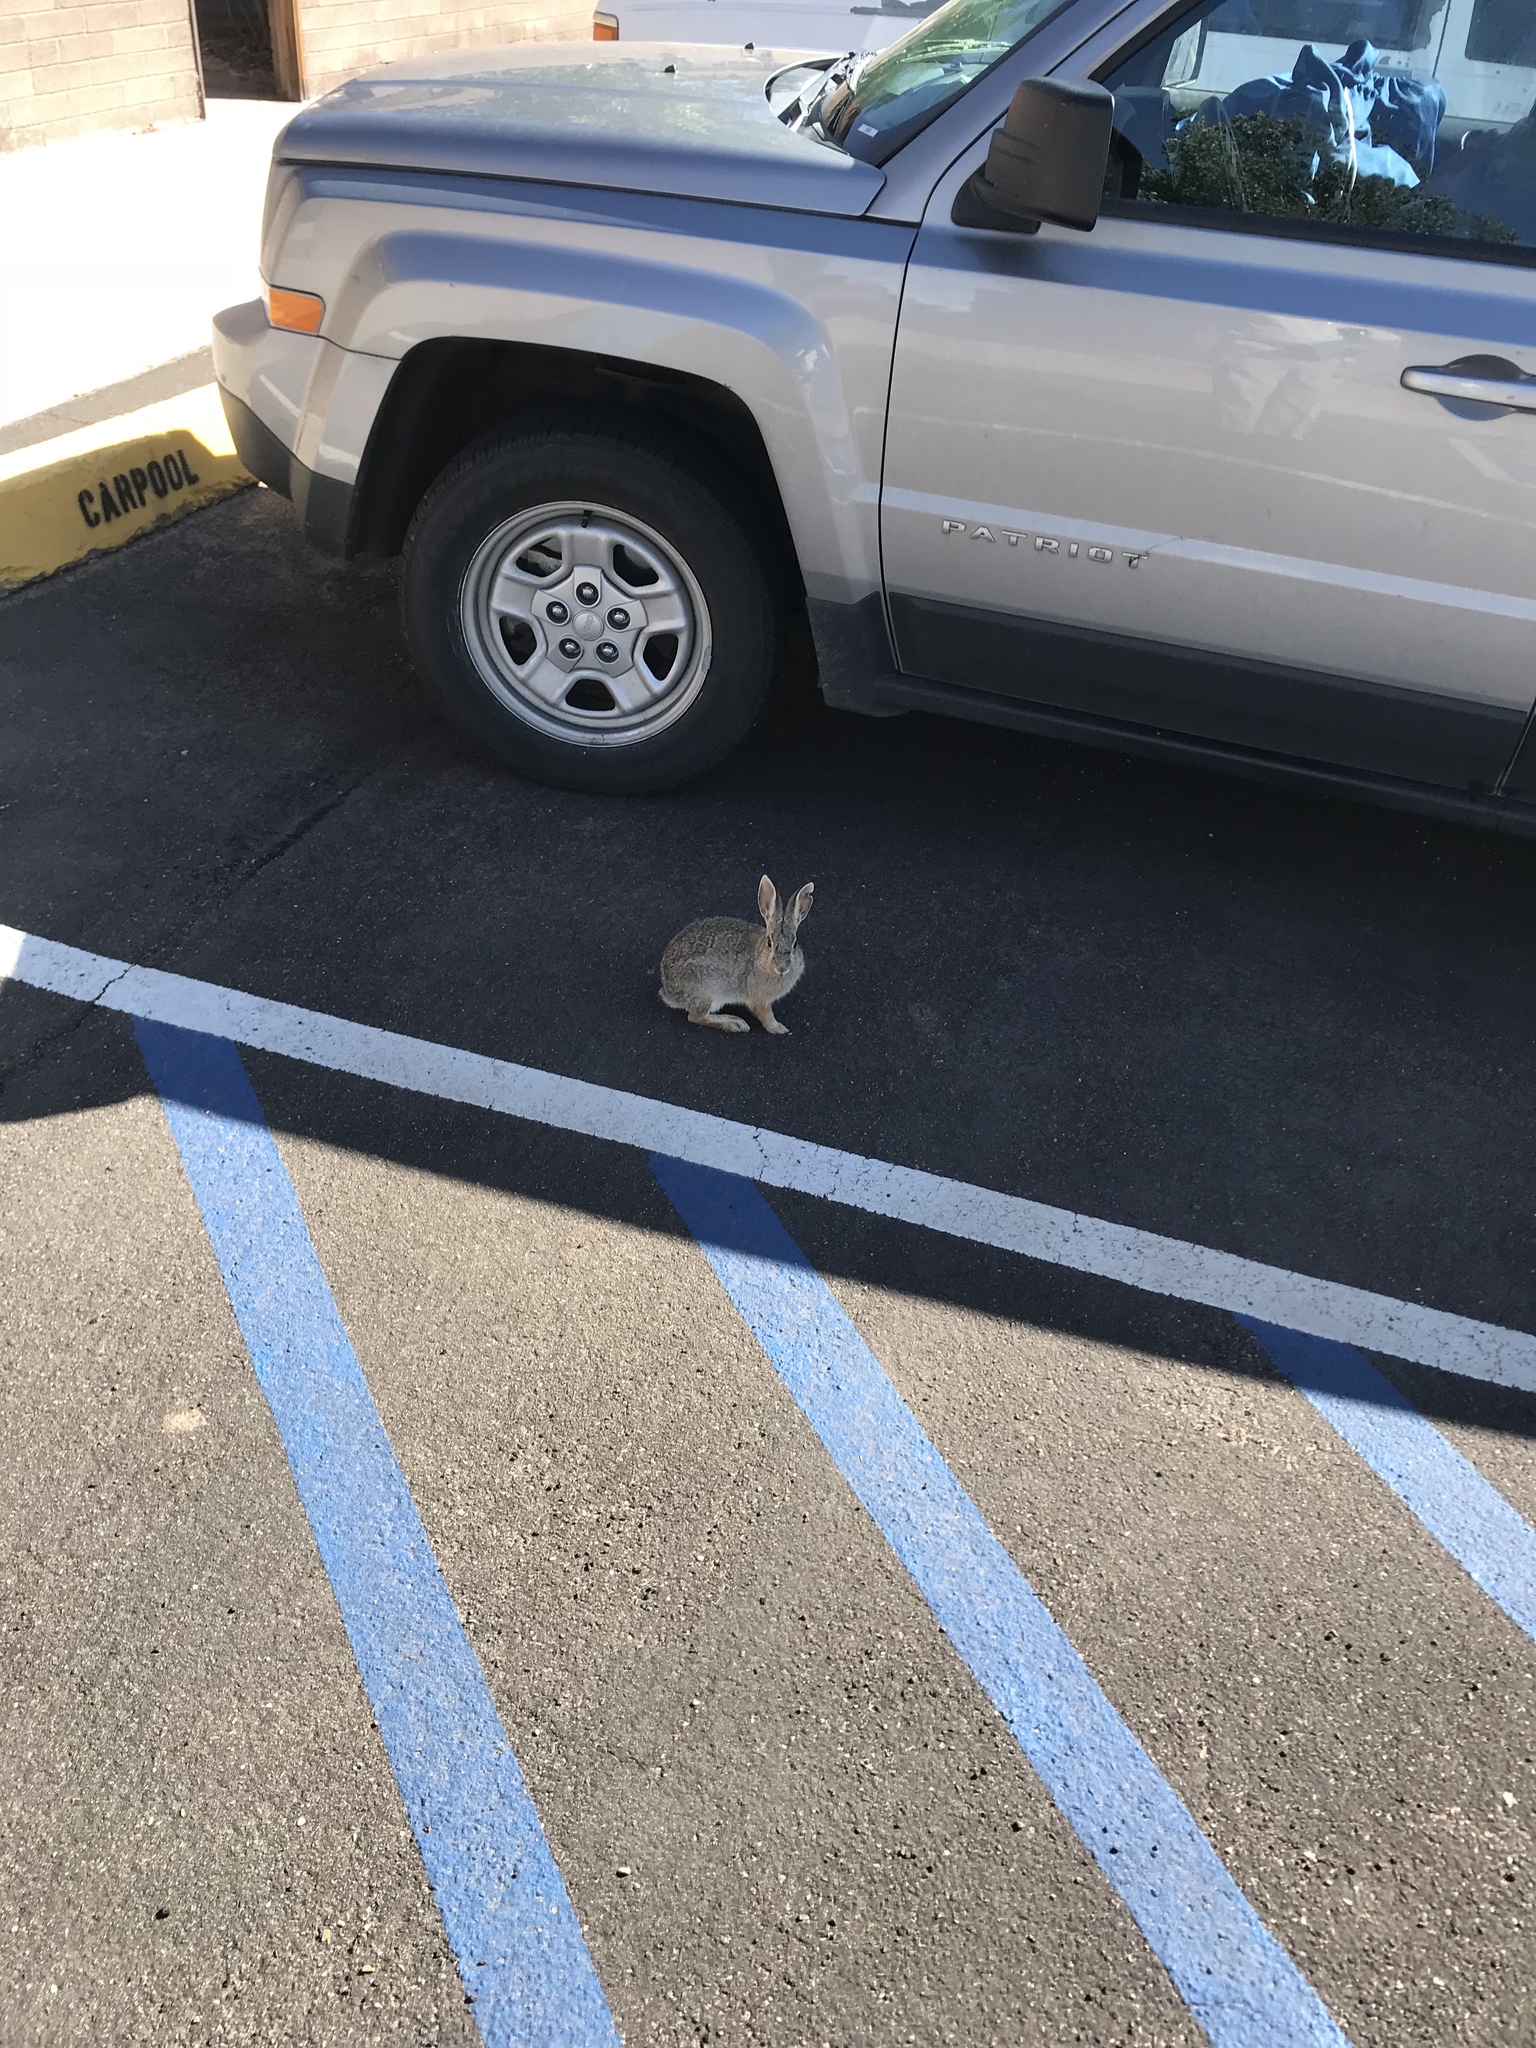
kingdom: Animalia
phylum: Chordata
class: Mammalia
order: Lagomorpha
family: Leporidae
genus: Sylvilagus
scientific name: Sylvilagus audubonii
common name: Desert cottontail
